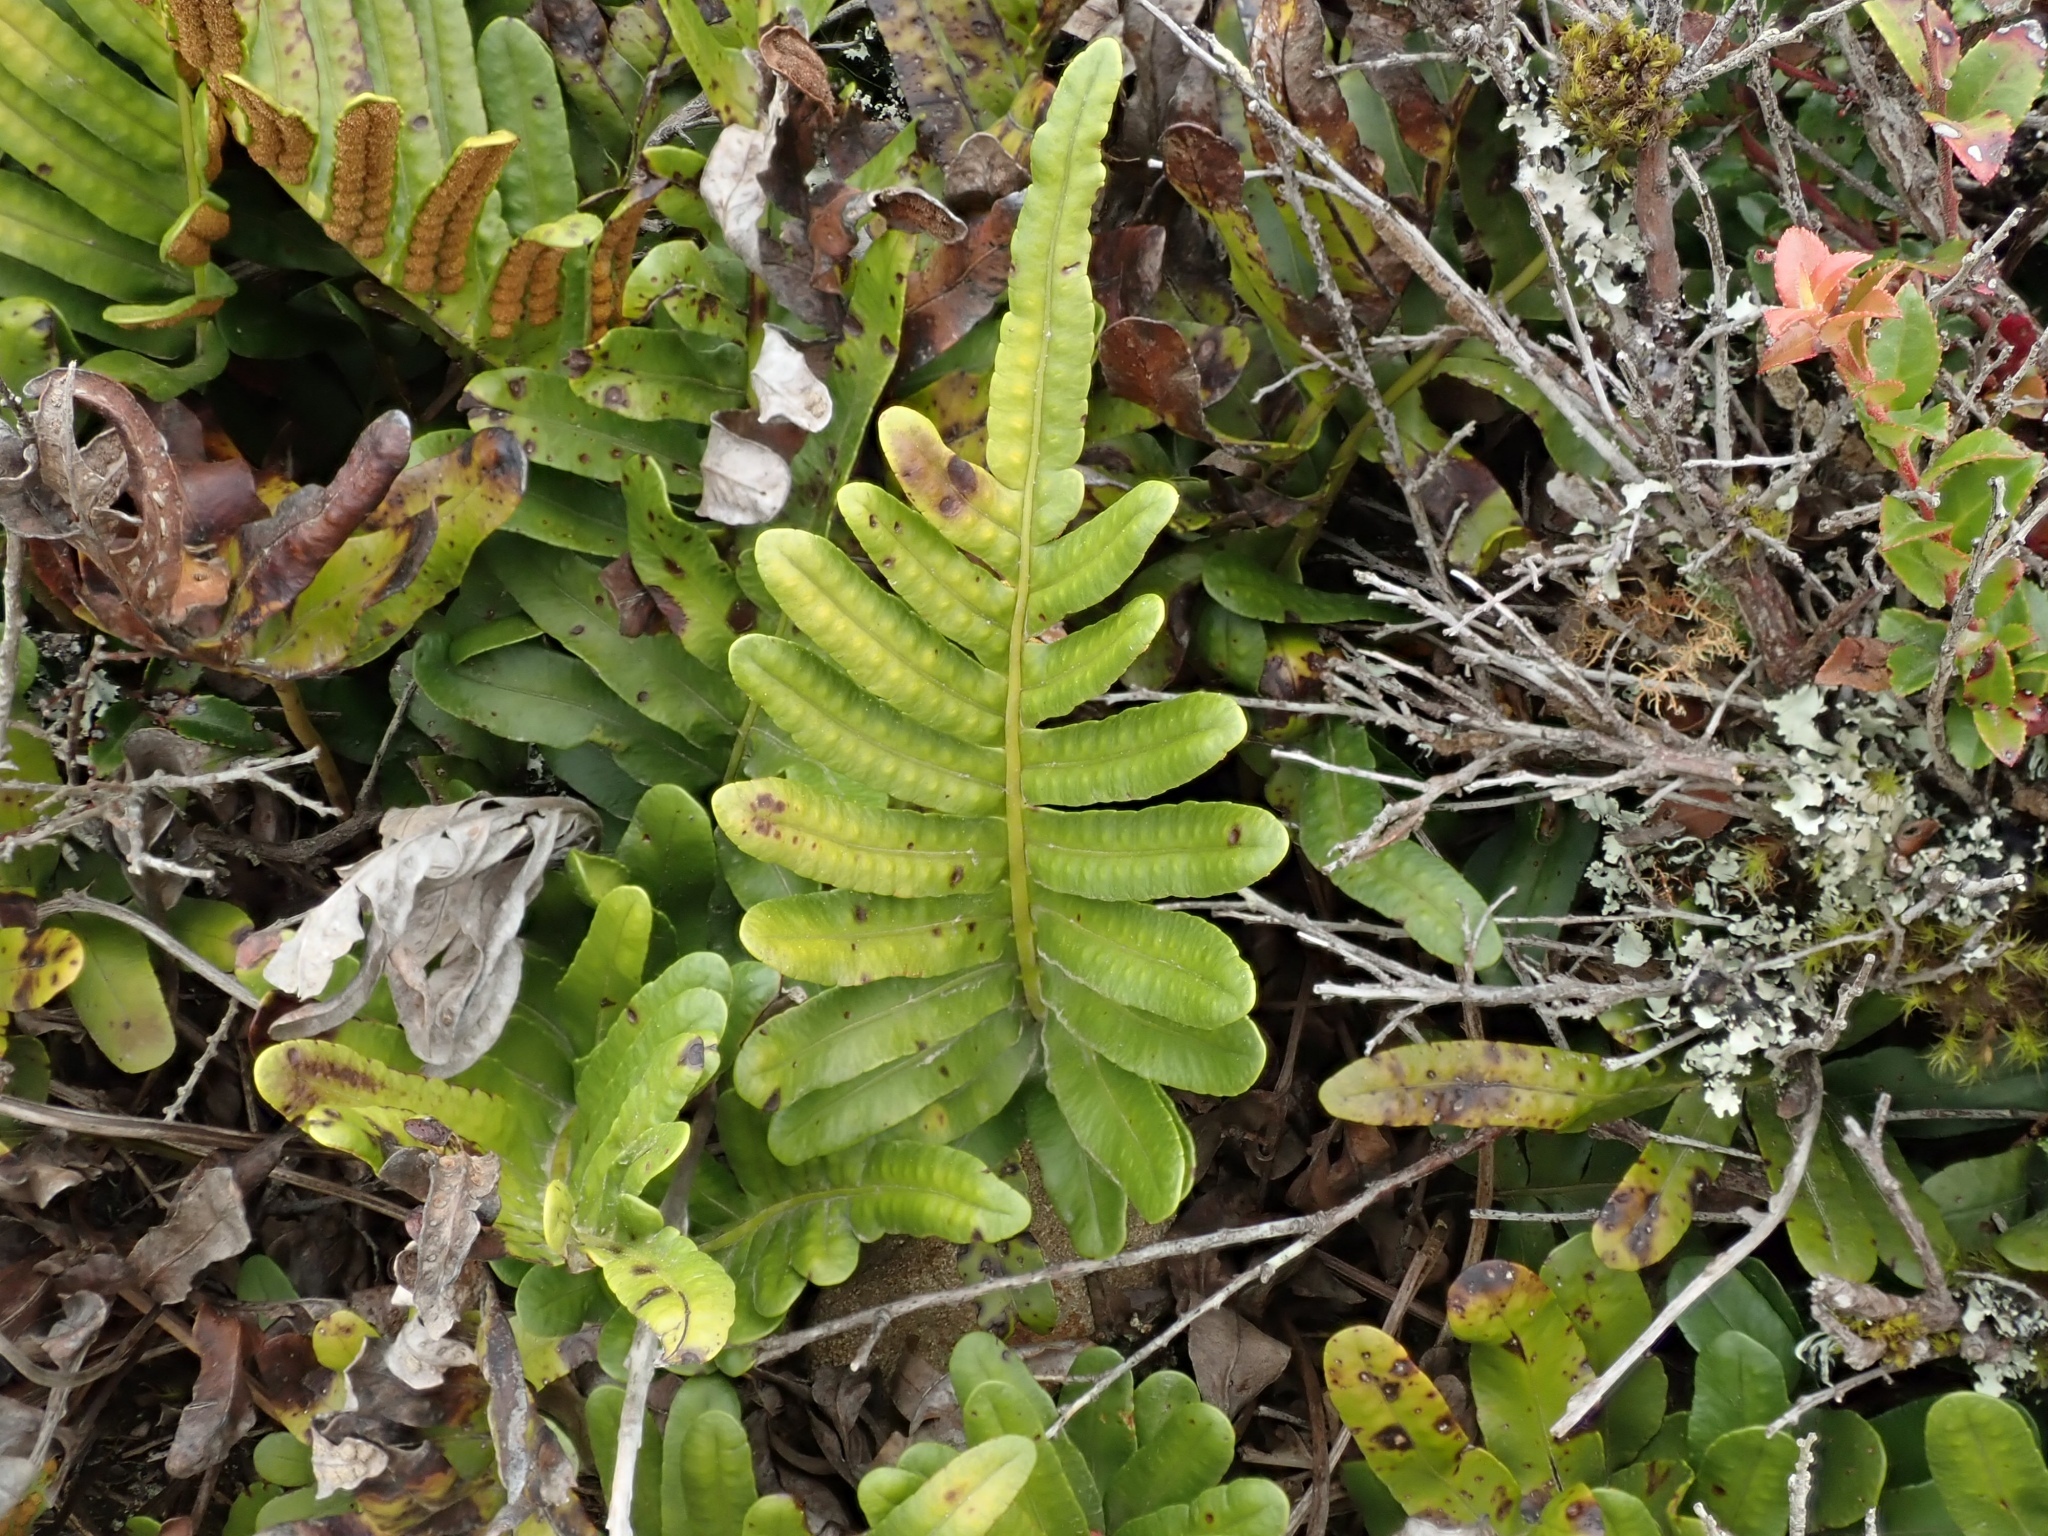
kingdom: Plantae
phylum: Tracheophyta
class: Polypodiopsida
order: Polypodiales
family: Polypodiaceae
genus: Polypodium
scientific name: Polypodium scouleri
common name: Scouler's polypody
